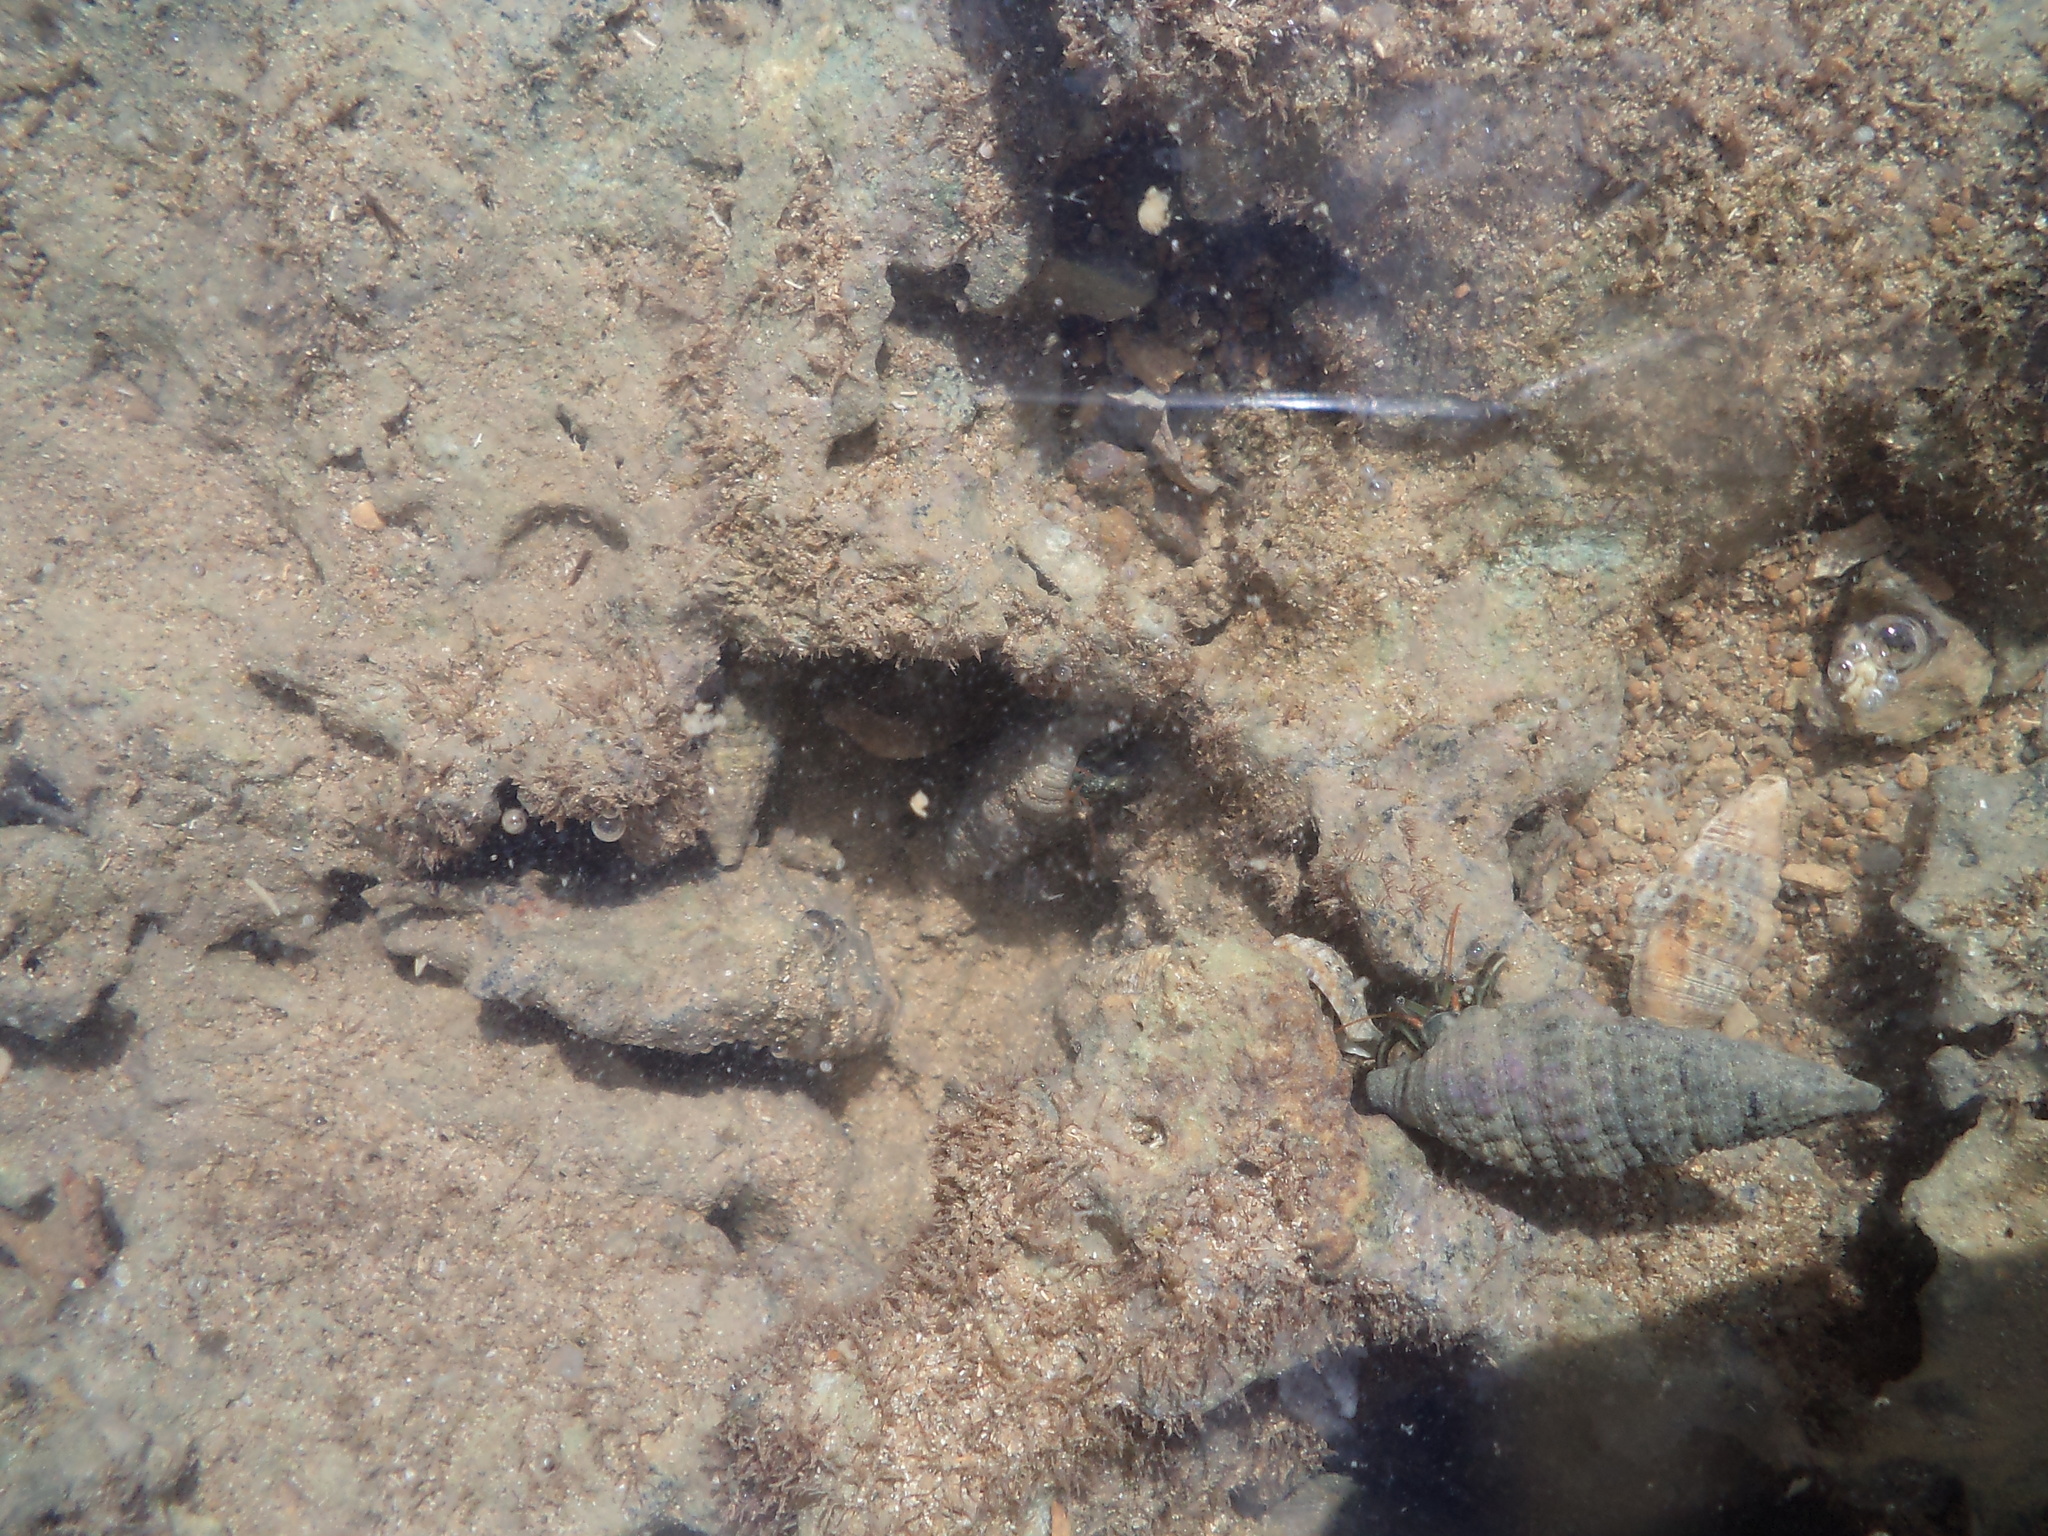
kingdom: Animalia
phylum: Mollusca
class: Gastropoda
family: Cerithiidae
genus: Cerithium
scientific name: Cerithium atratum
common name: Dark cerith
